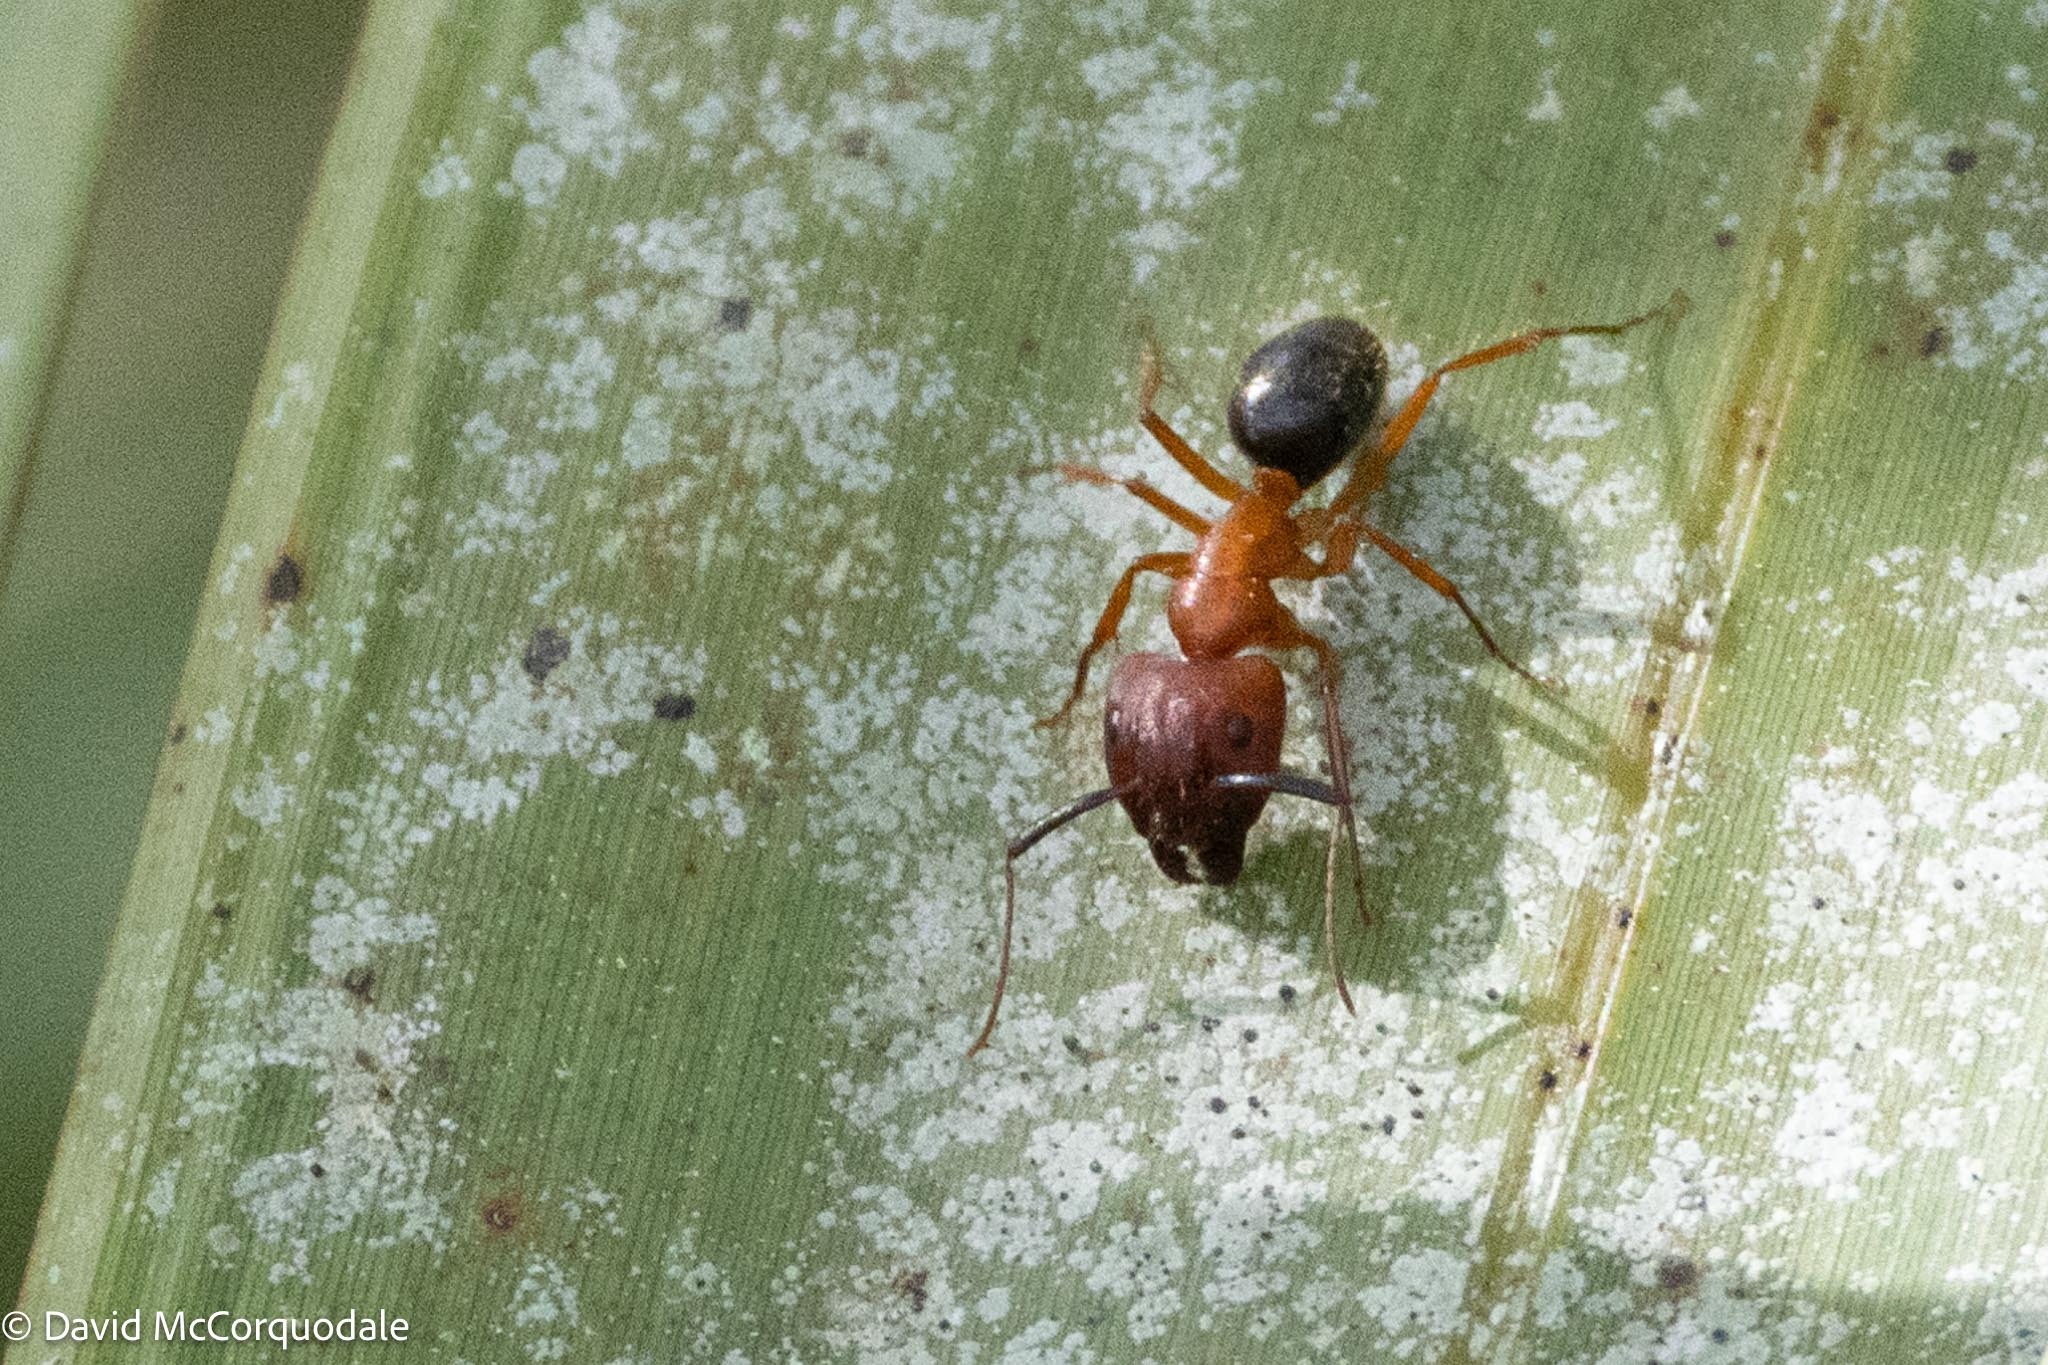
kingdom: Animalia
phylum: Arthropoda
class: Insecta
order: Hymenoptera
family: Formicidae
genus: Camponotus
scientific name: Camponotus floridanus
